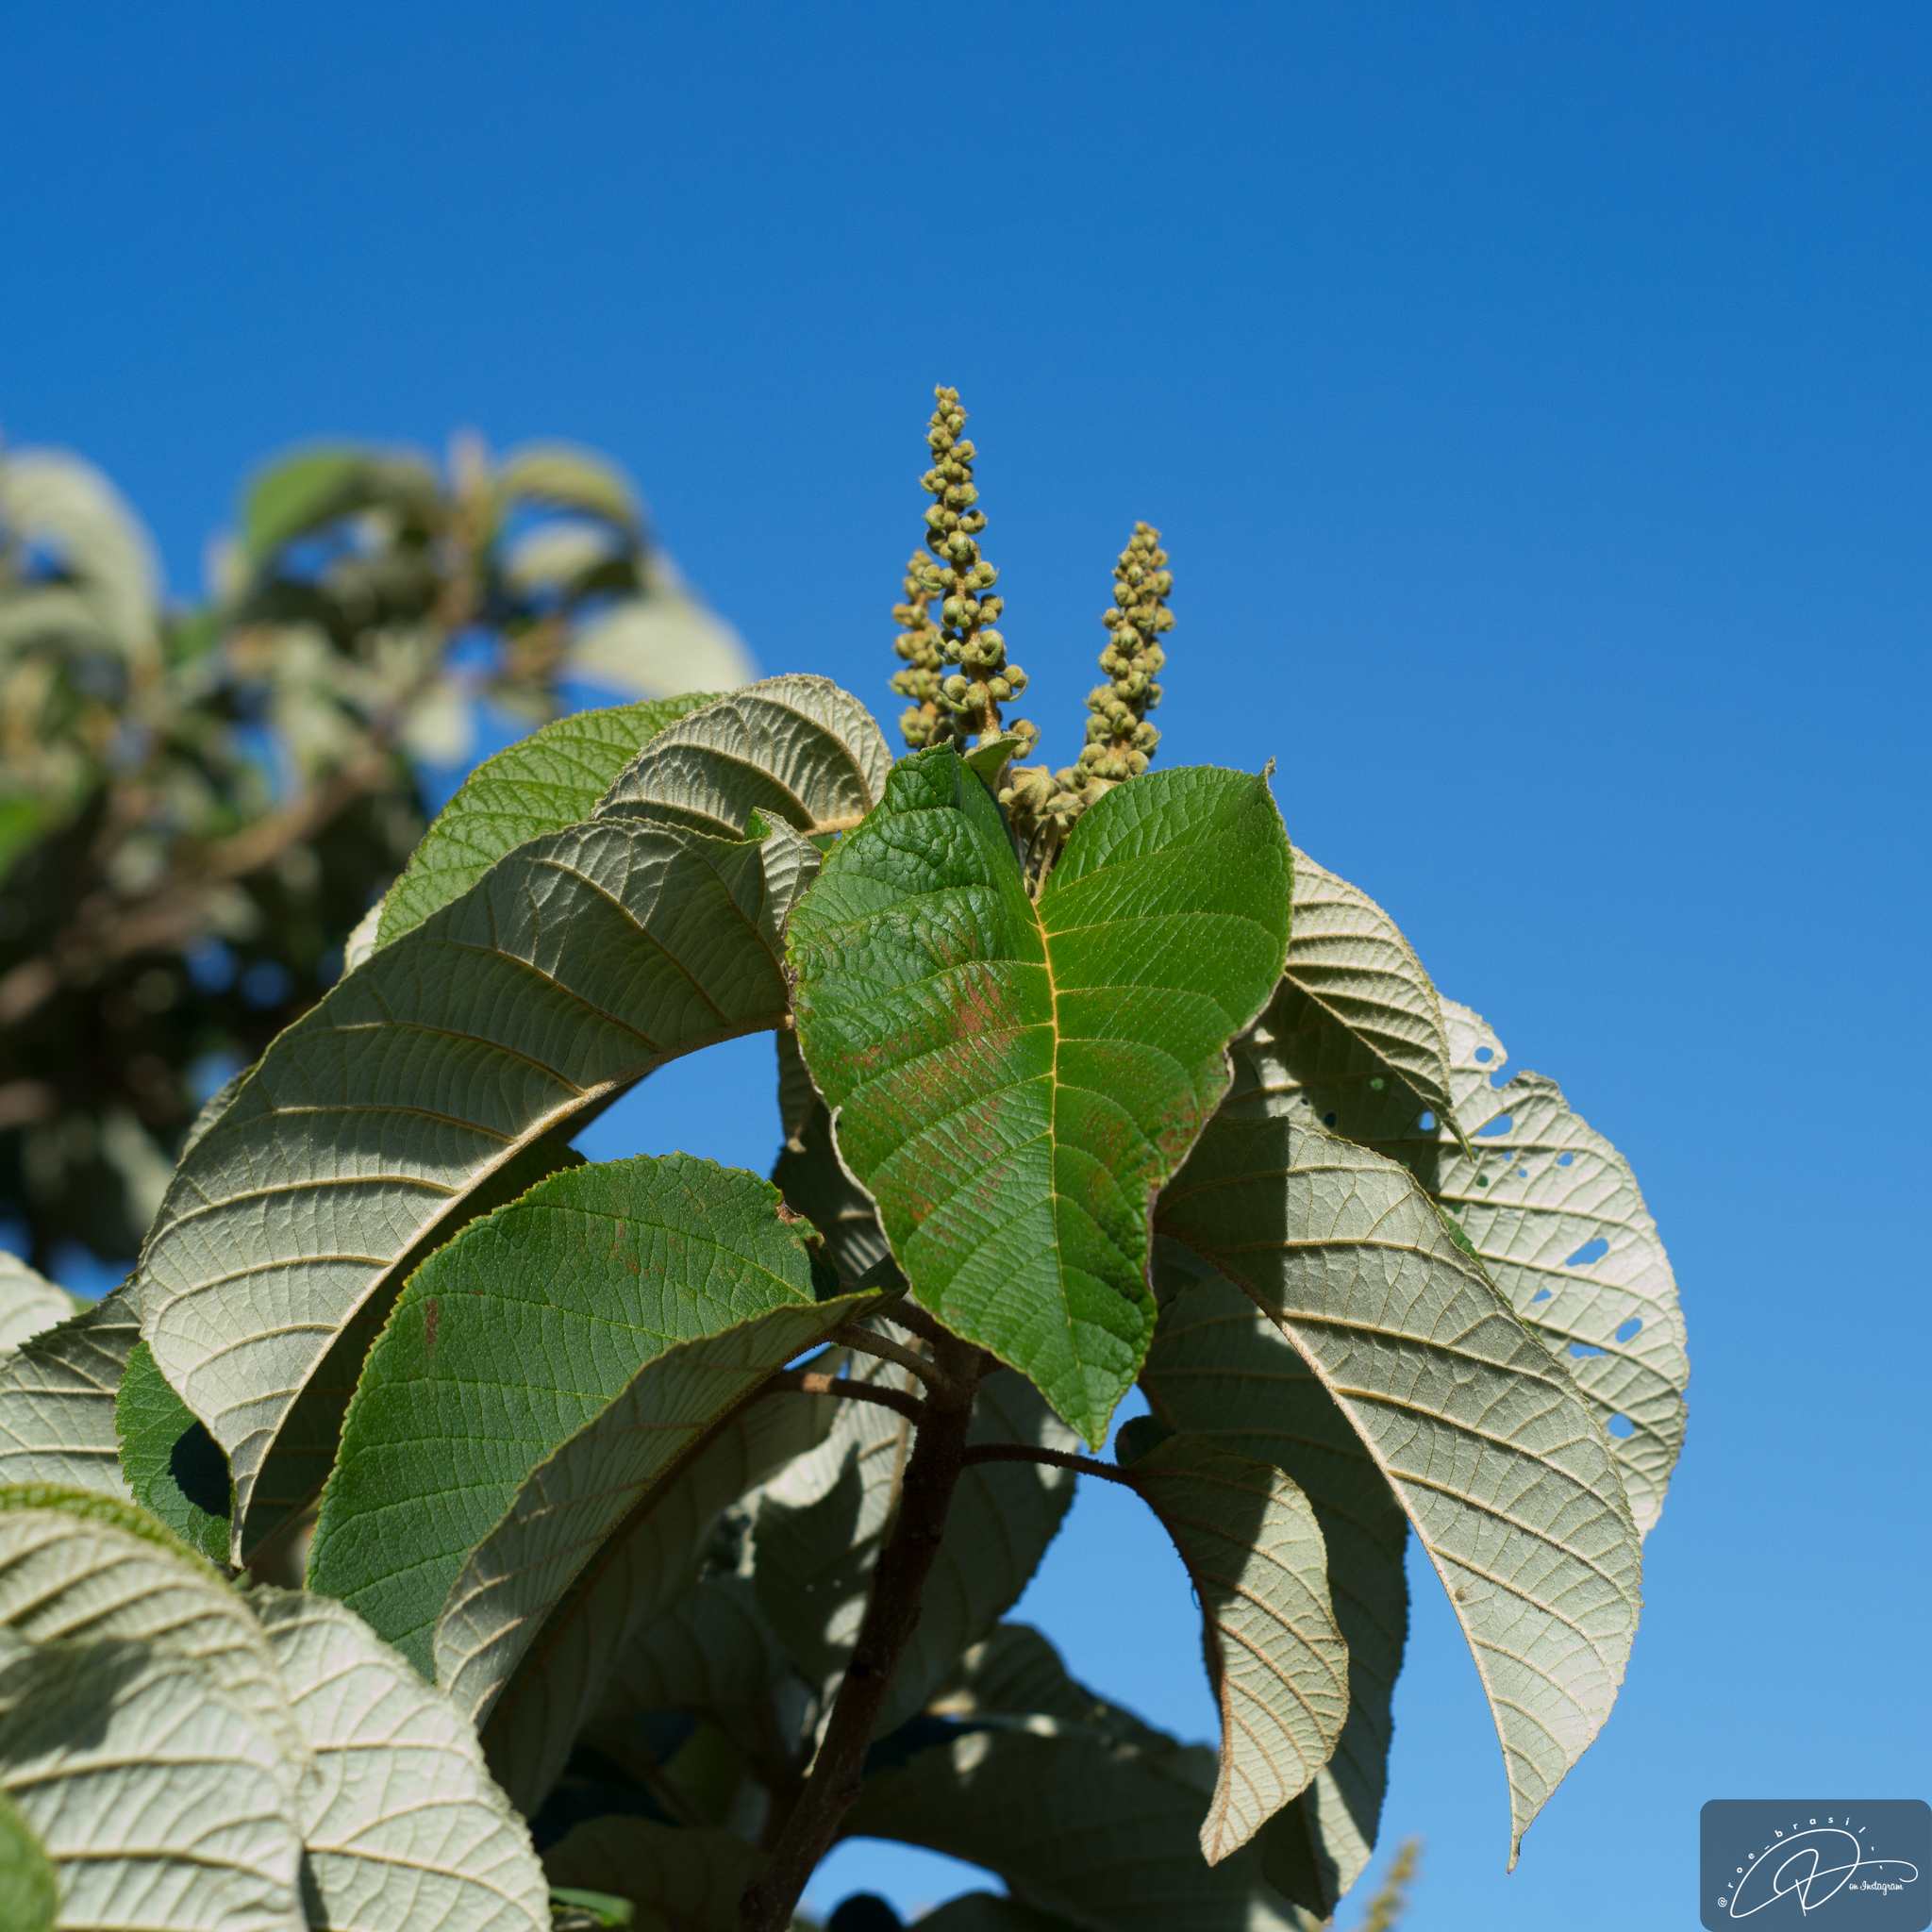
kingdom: Plantae
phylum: Tracheophyta
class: Magnoliopsida
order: Malpighiales
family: Euphorbiaceae
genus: Croton
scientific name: Croton floribundus
